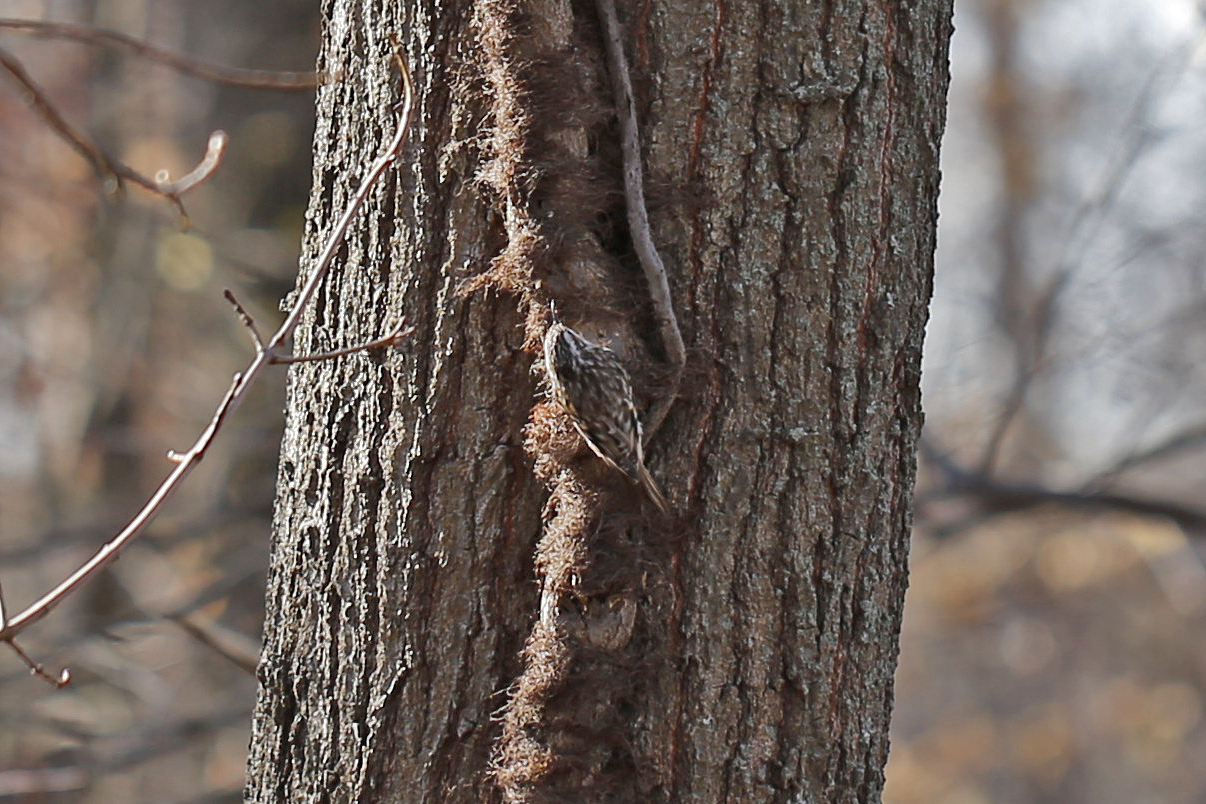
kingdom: Animalia
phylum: Chordata
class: Aves
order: Passeriformes
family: Certhiidae
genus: Certhia
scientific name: Certhia americana
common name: Brown creeper
